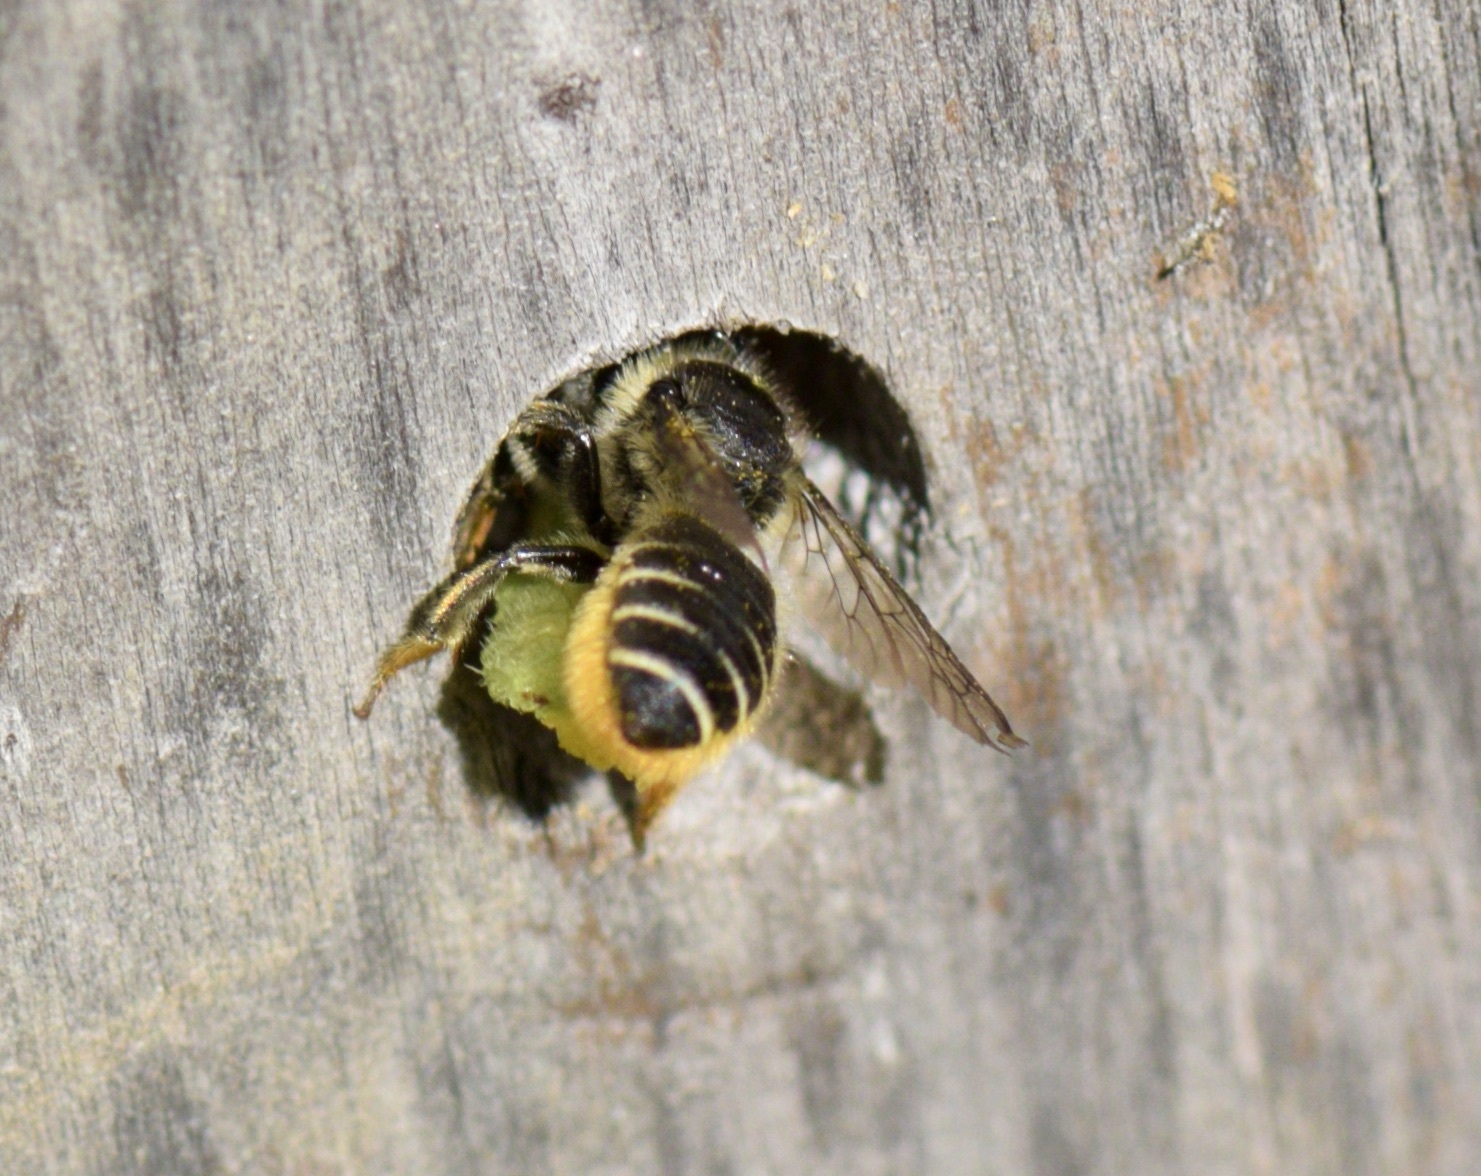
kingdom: Animalia
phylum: Arthropoda
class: Insecta
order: Hymenoptera
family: Megachilidae
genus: Megachile
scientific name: Megachile relativa
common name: Golden-tailed leafcutter
